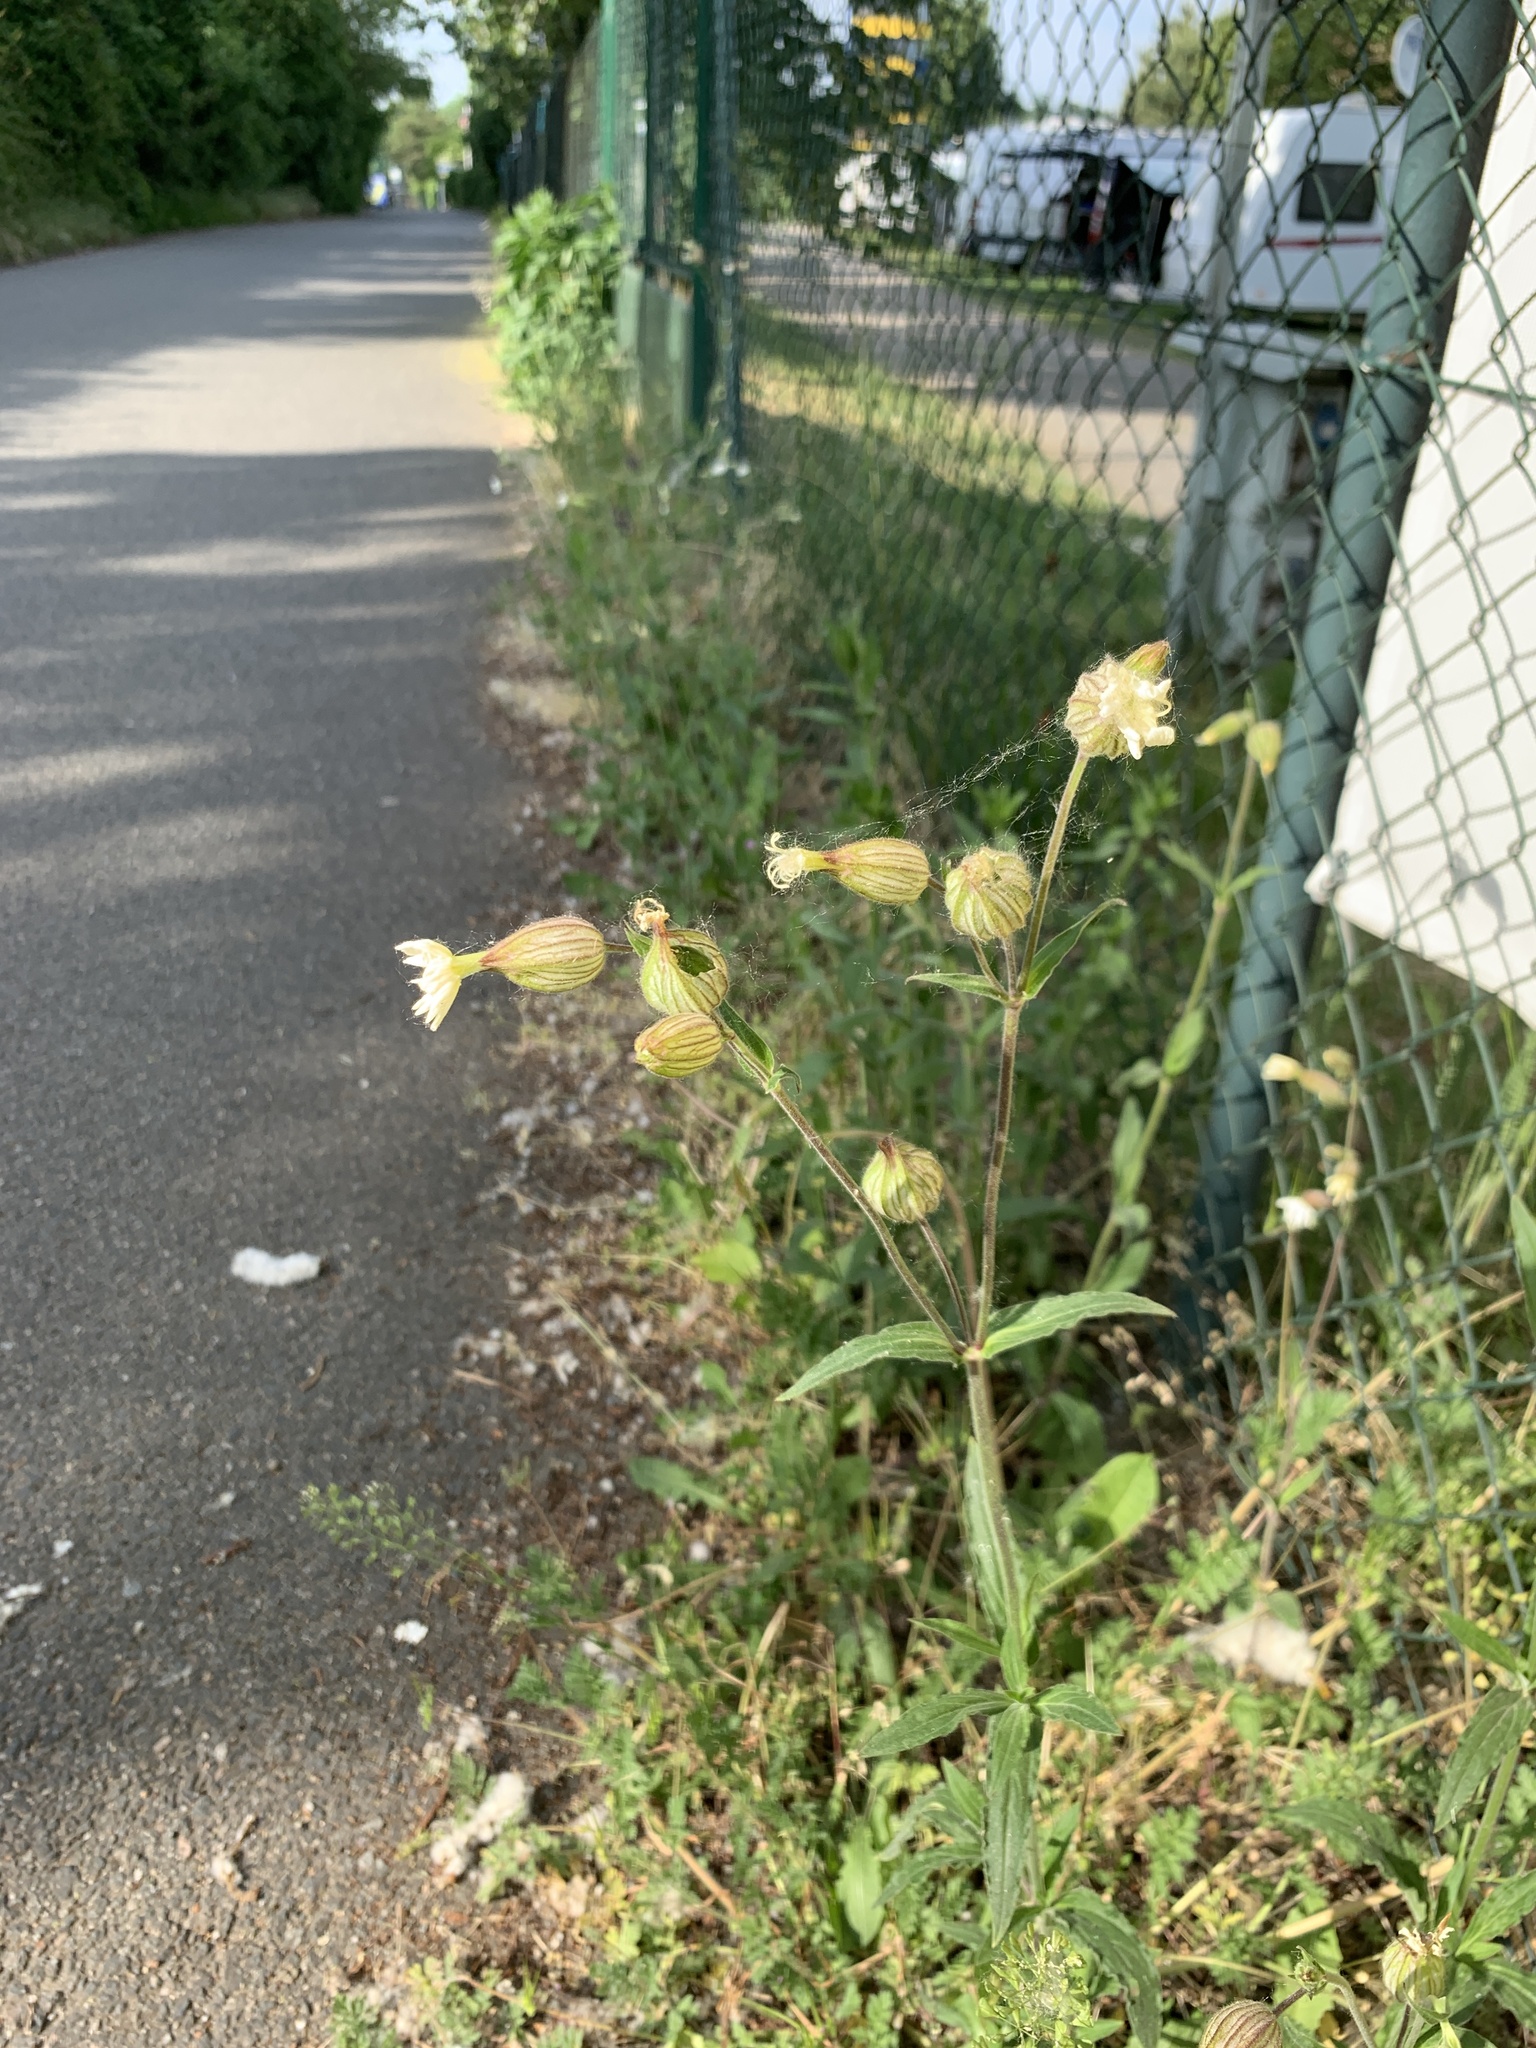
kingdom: Plantae
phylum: Tracheophyta
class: Magnoliopsida
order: Caryophyllales
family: Caryophyllaceae
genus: Silene
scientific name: Silene latifolia
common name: White campion
